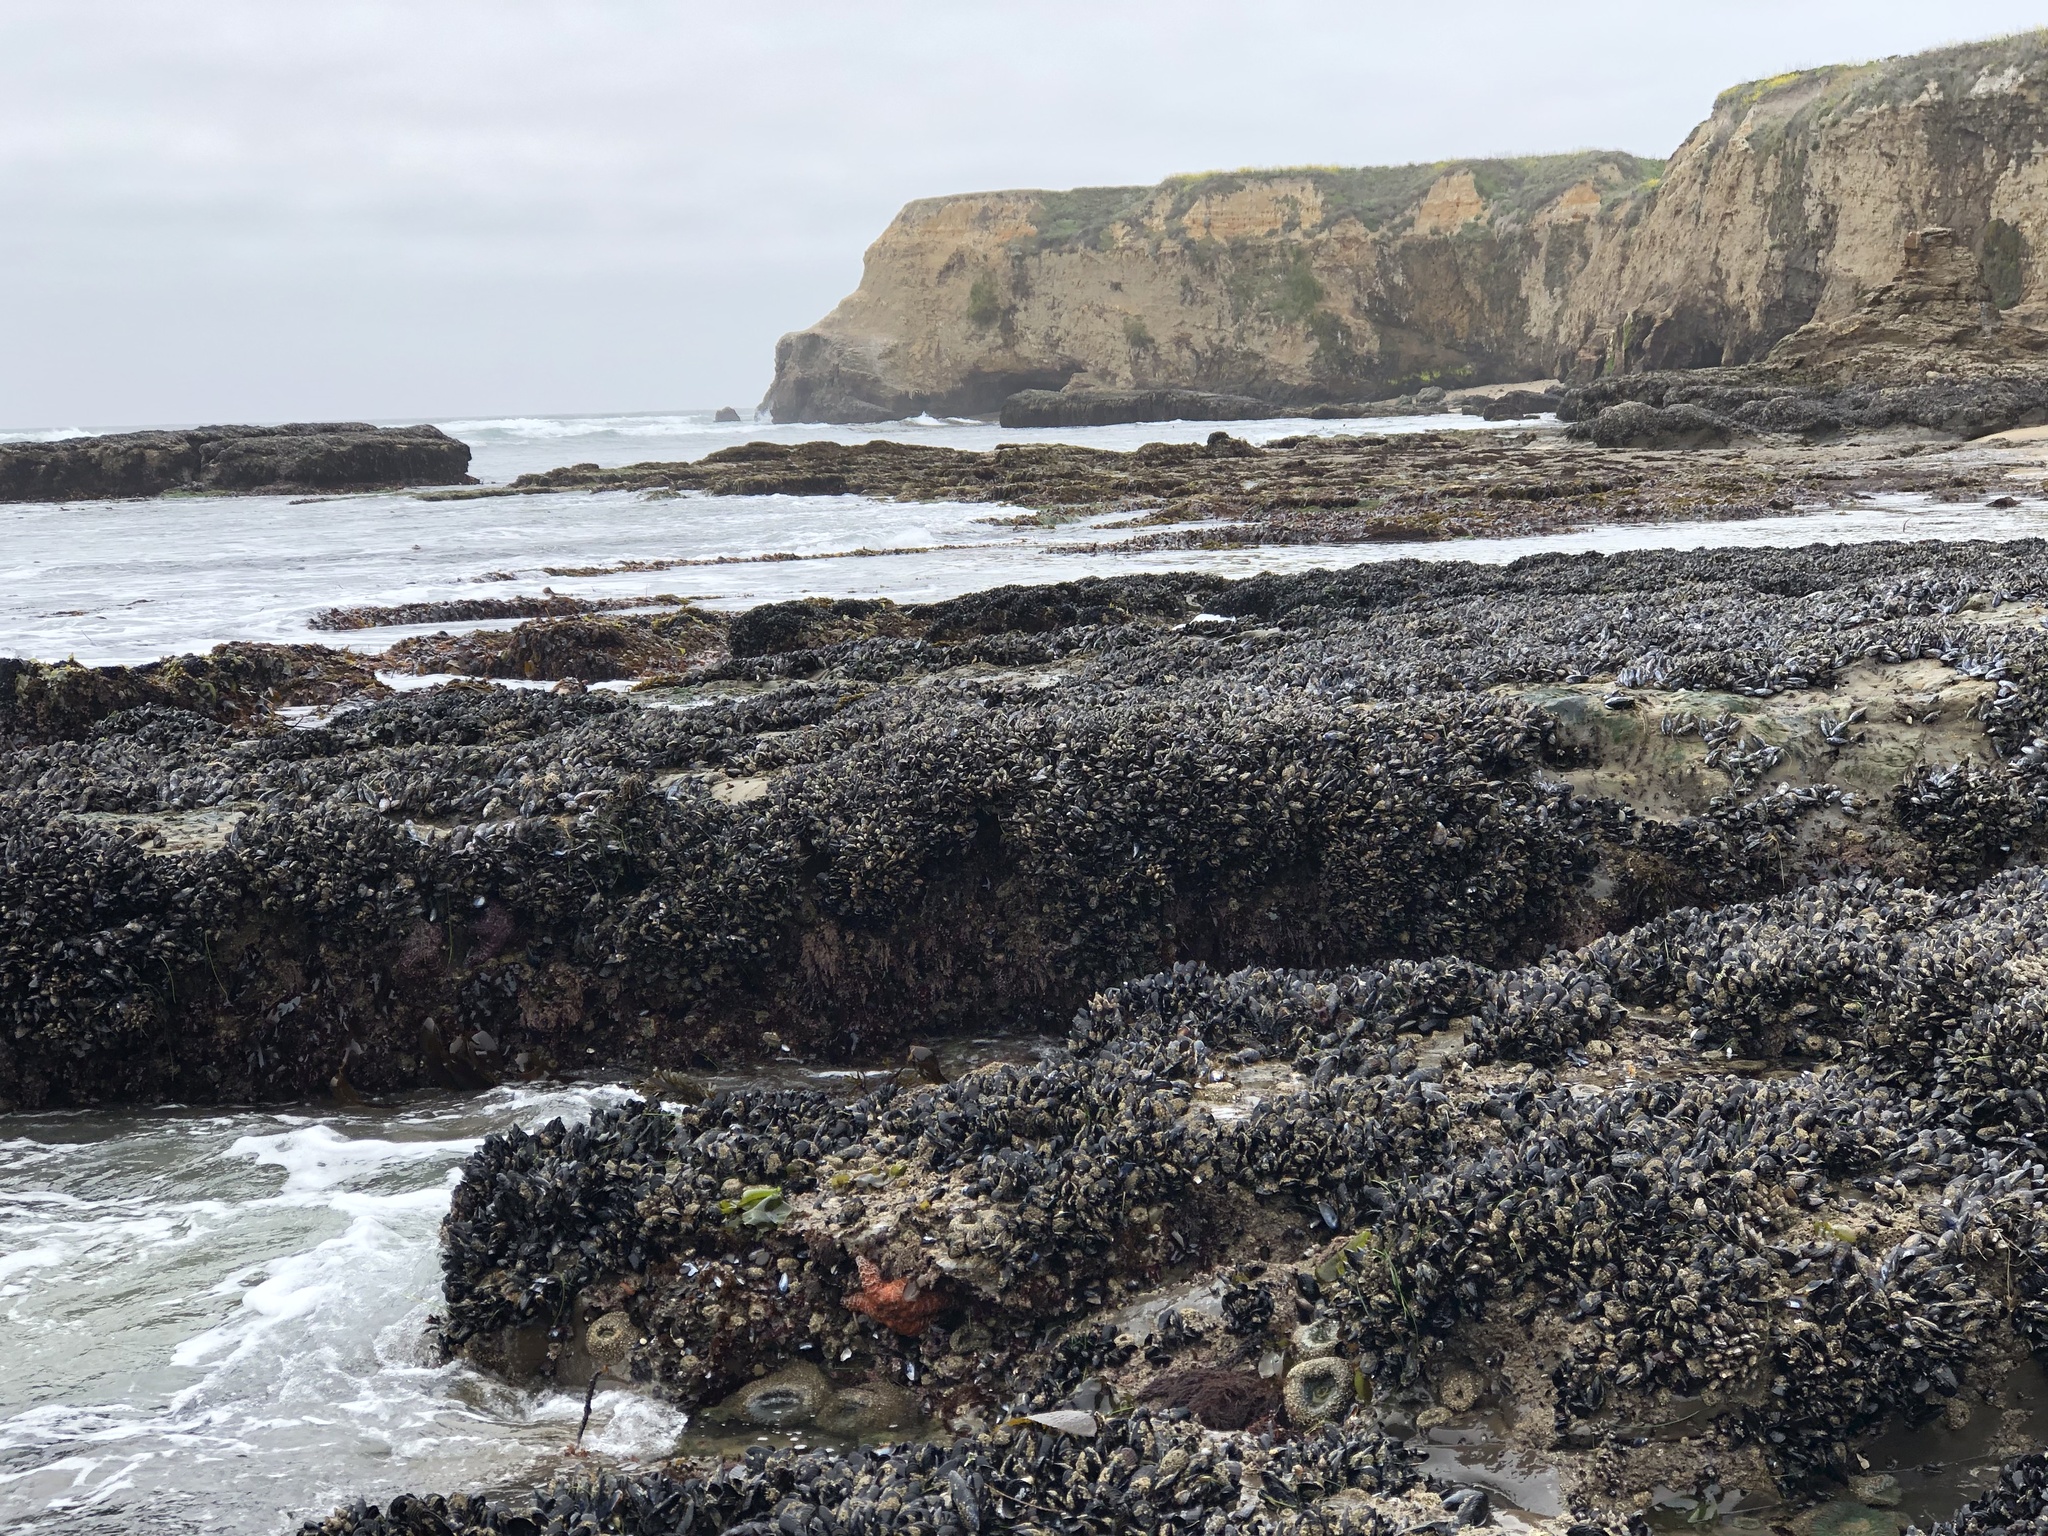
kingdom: Animalia
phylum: Mollusca
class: Bivalvia
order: Mytilida
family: Mytilidae
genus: Mytilus
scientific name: Mytilus californianus
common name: California mussel
